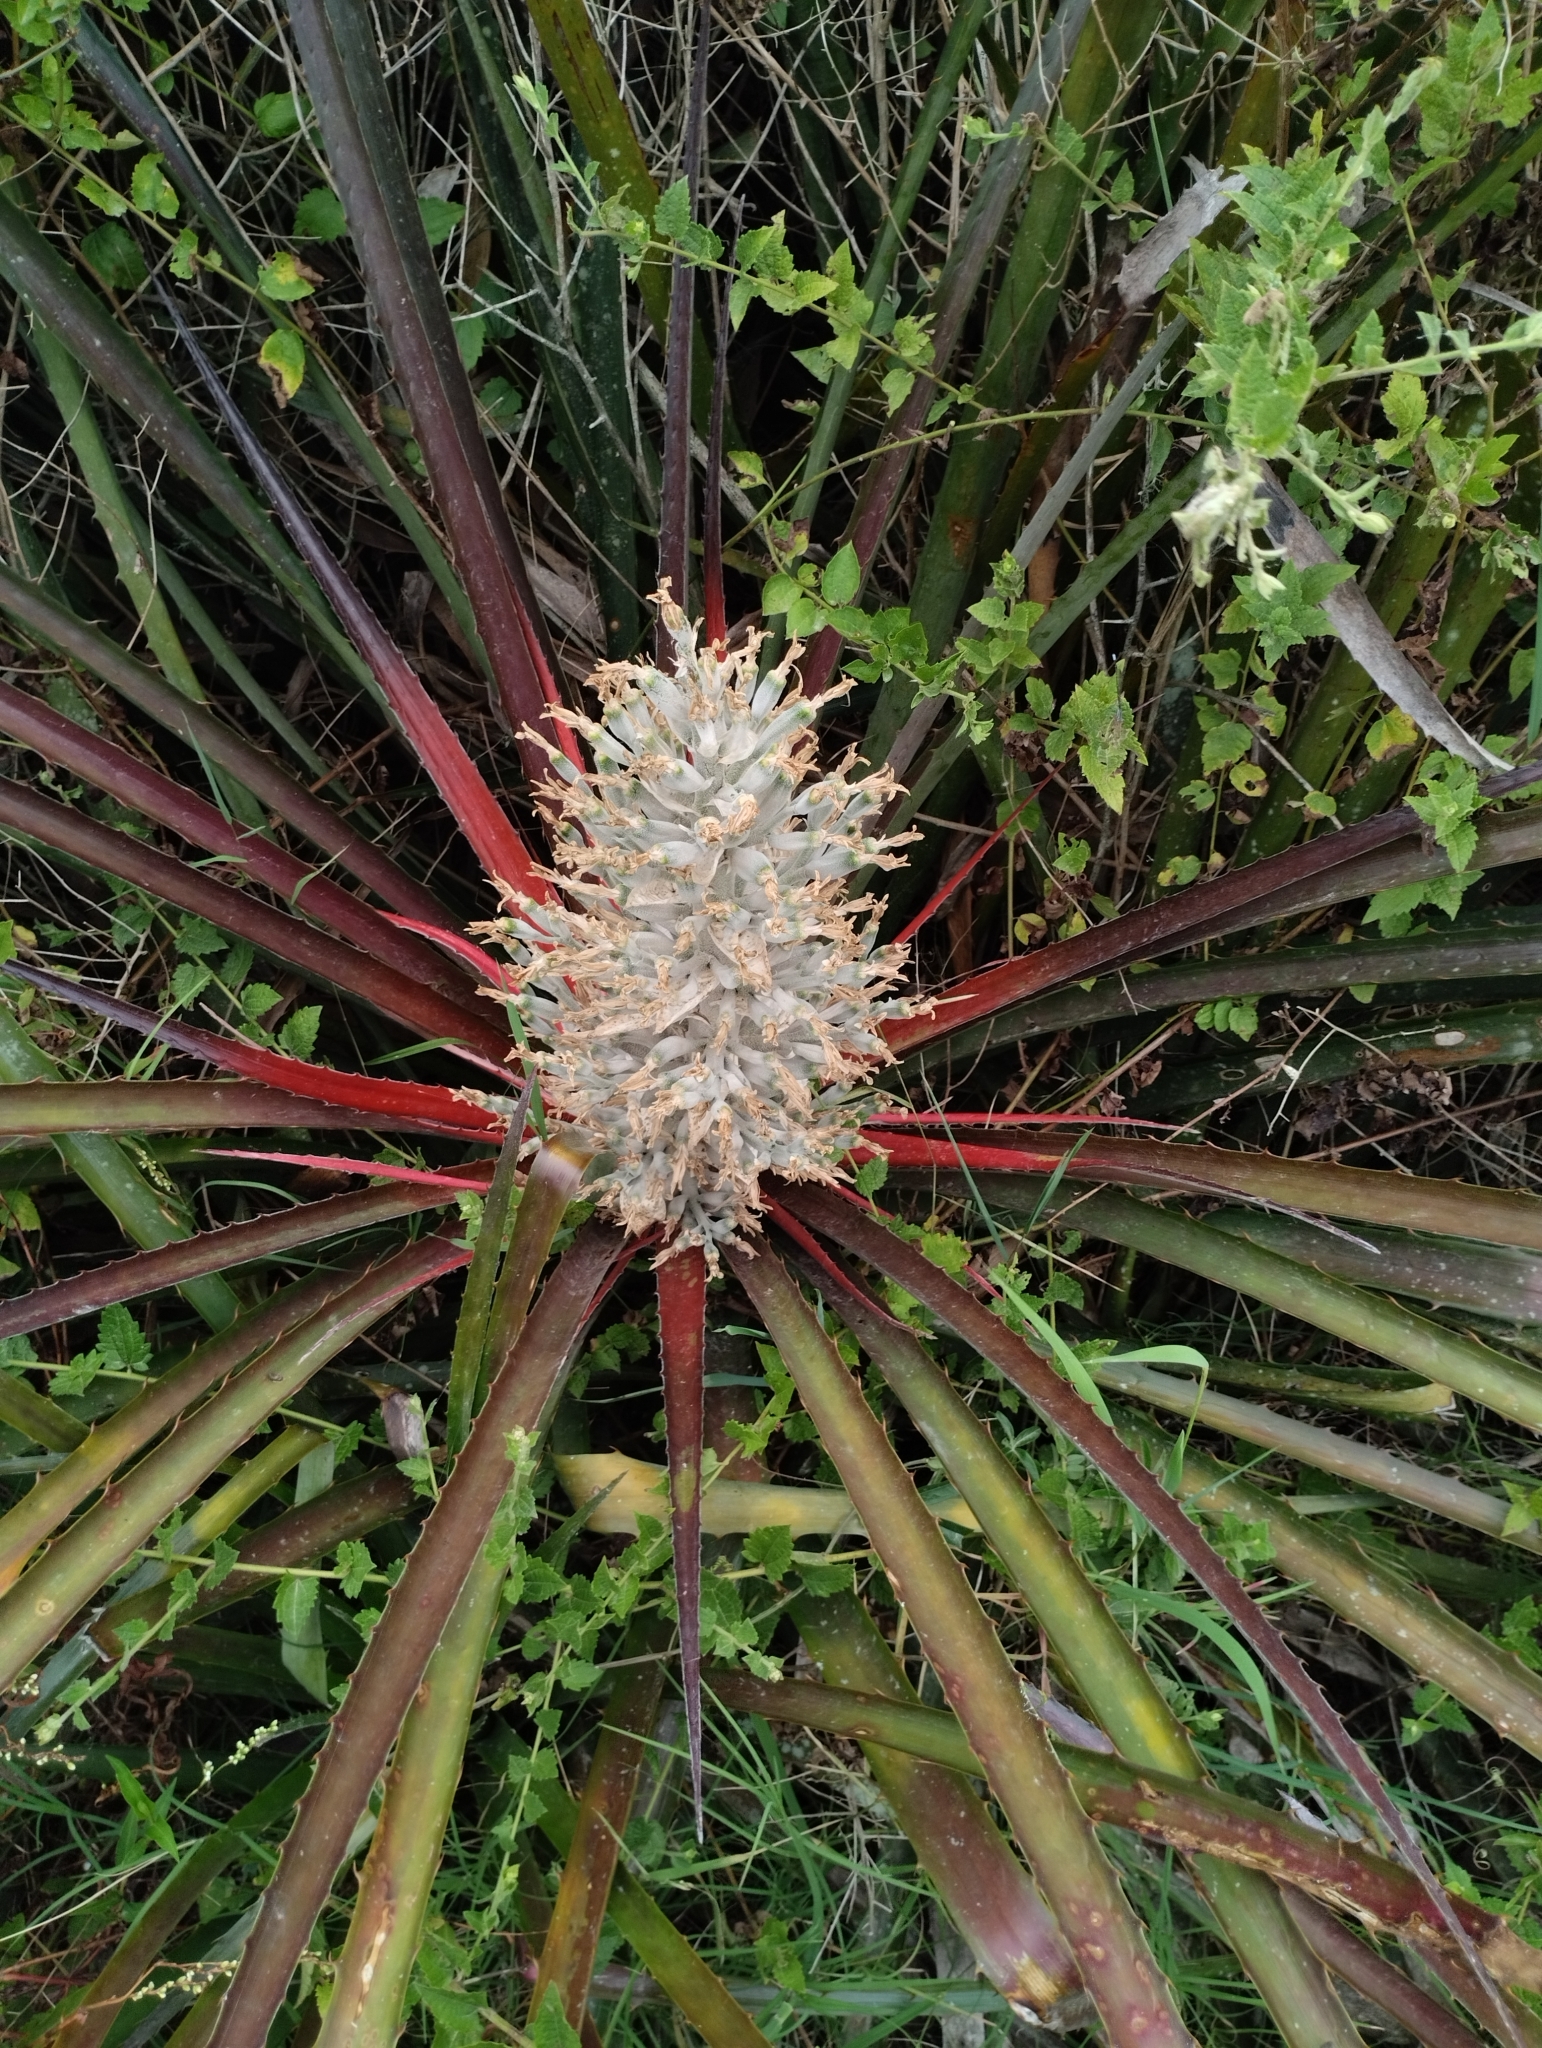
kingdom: Plantae
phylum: Tracheophyta
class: Liliopsida
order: Poales
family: Bromeliaceae
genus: Bromelia
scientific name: Bromelia antiacantha
